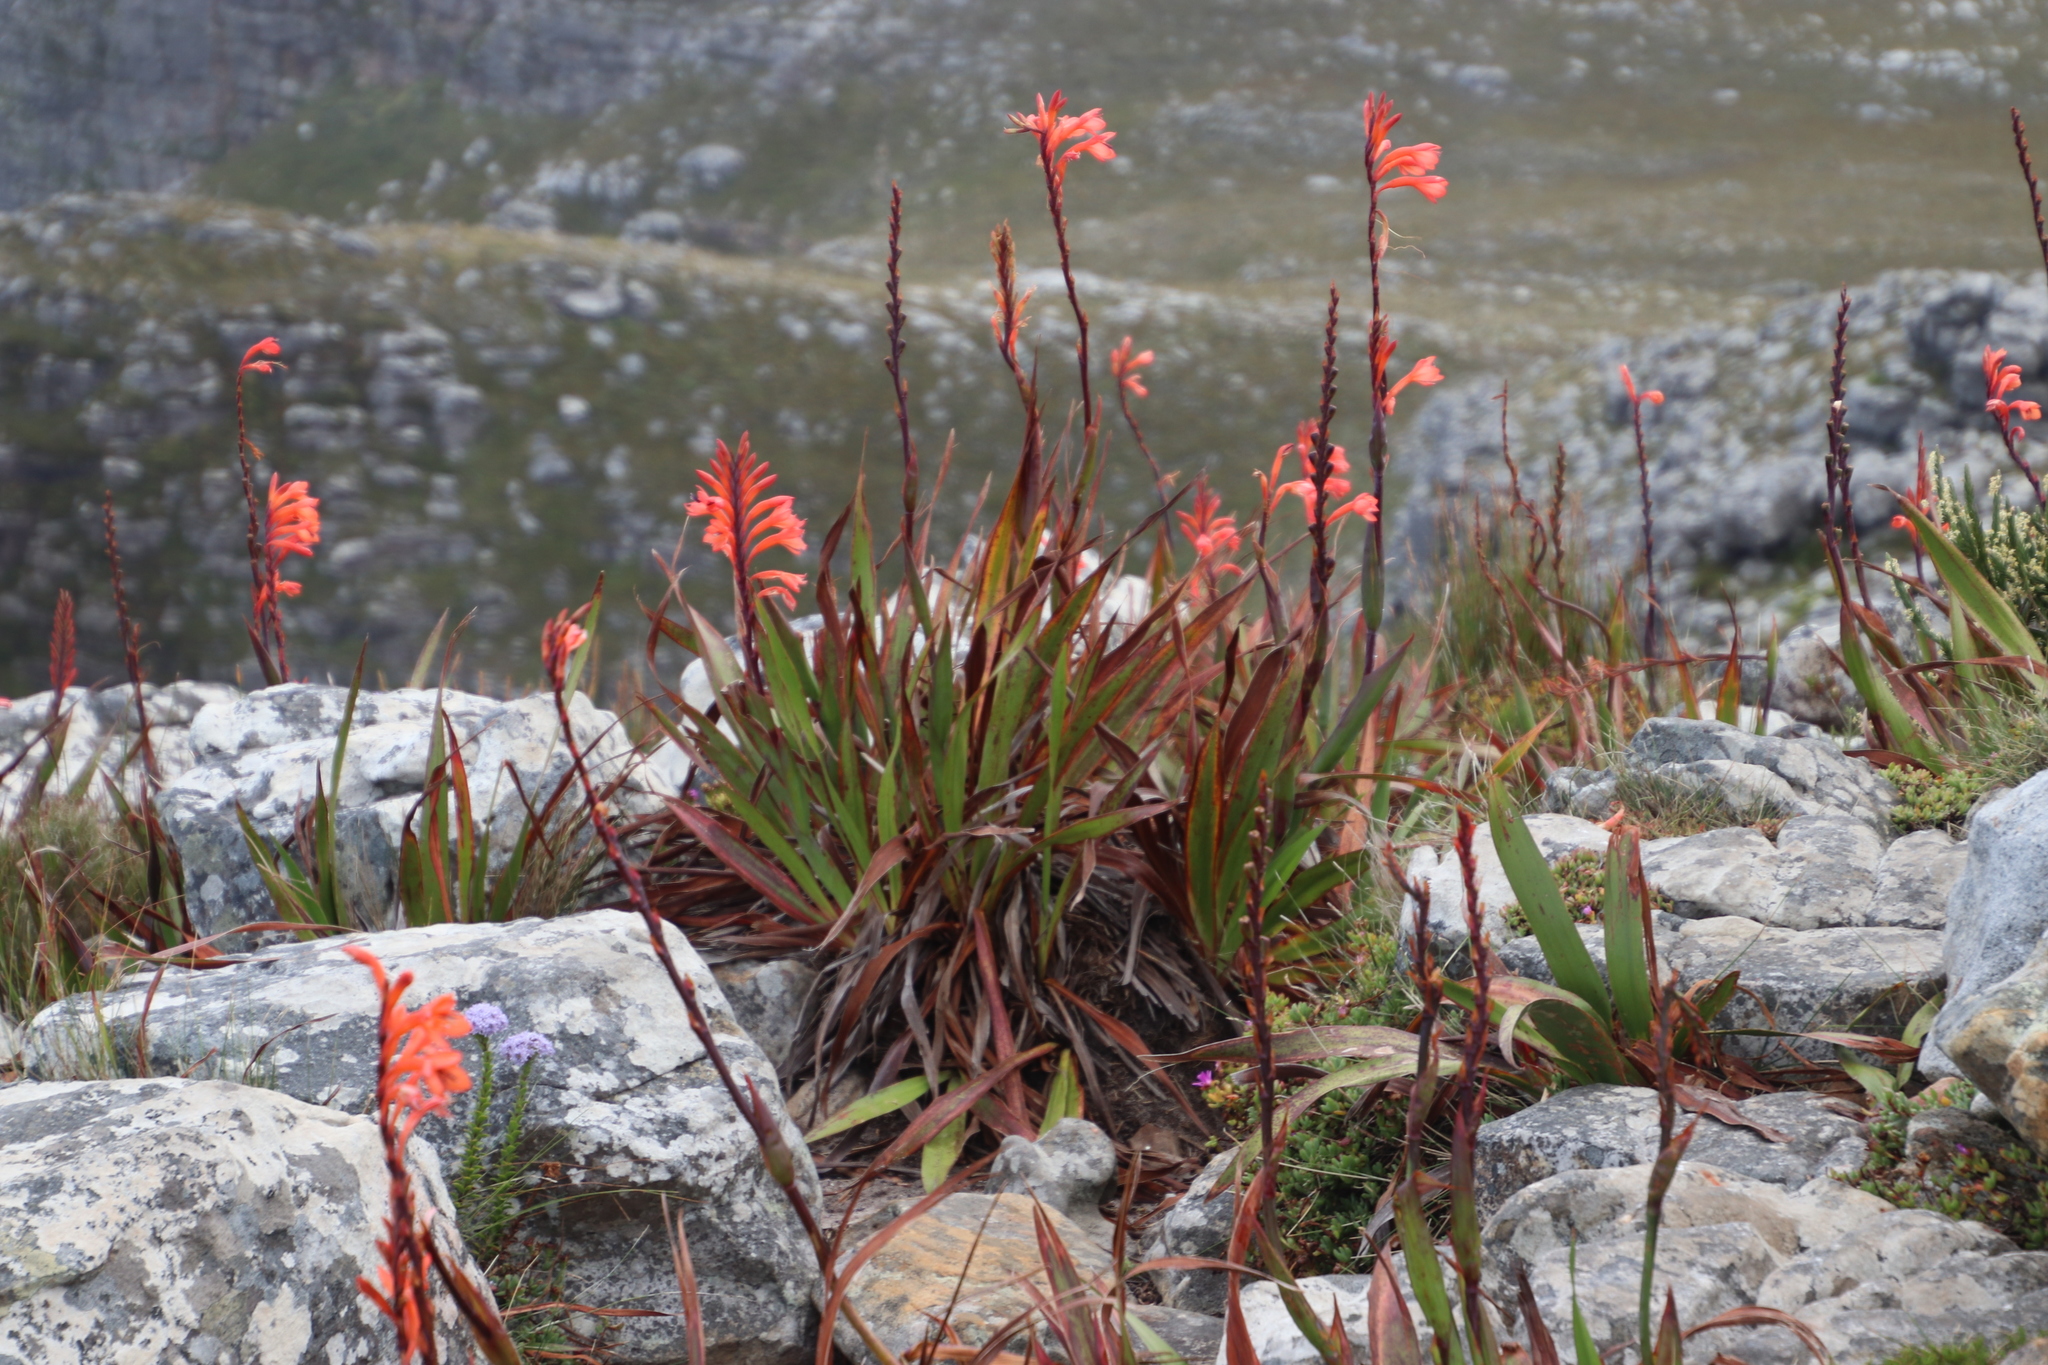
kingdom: Plantae
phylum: Tracheophyta
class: Liliopsida
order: Asparagales
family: Iridaceae
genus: Watsonia
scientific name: Watsonia tabularis
